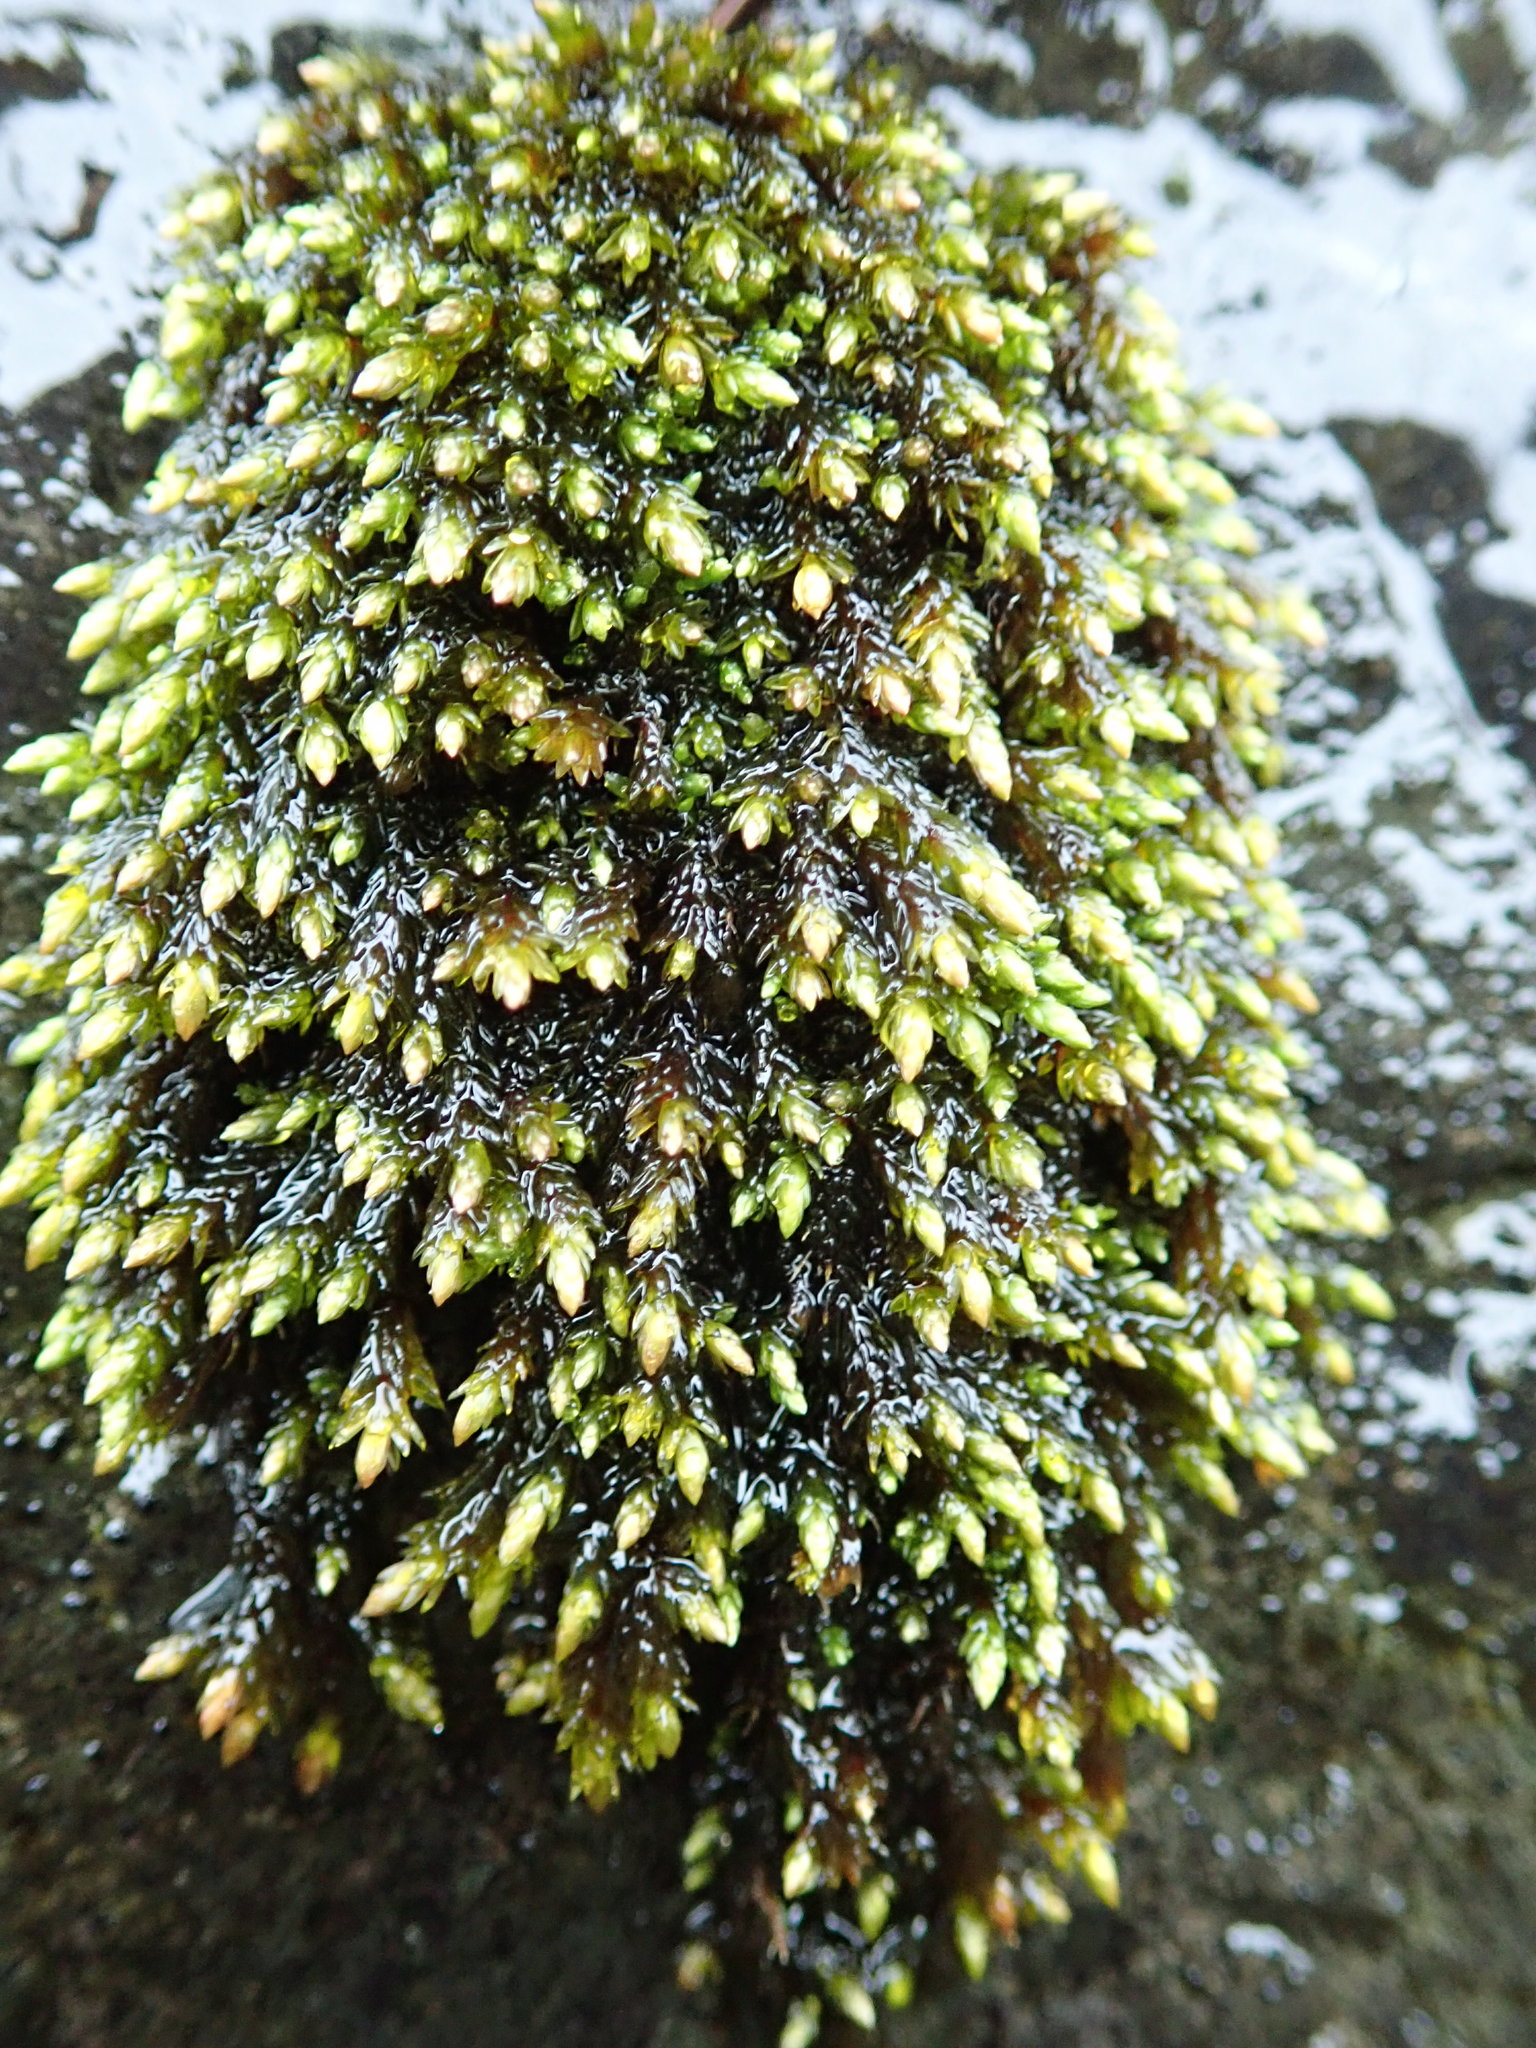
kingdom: Plantae
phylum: Bryophyta
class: Bryopsida
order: Bryales
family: Bryaceae
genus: Imbribryum
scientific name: Imbribryum miniatum
